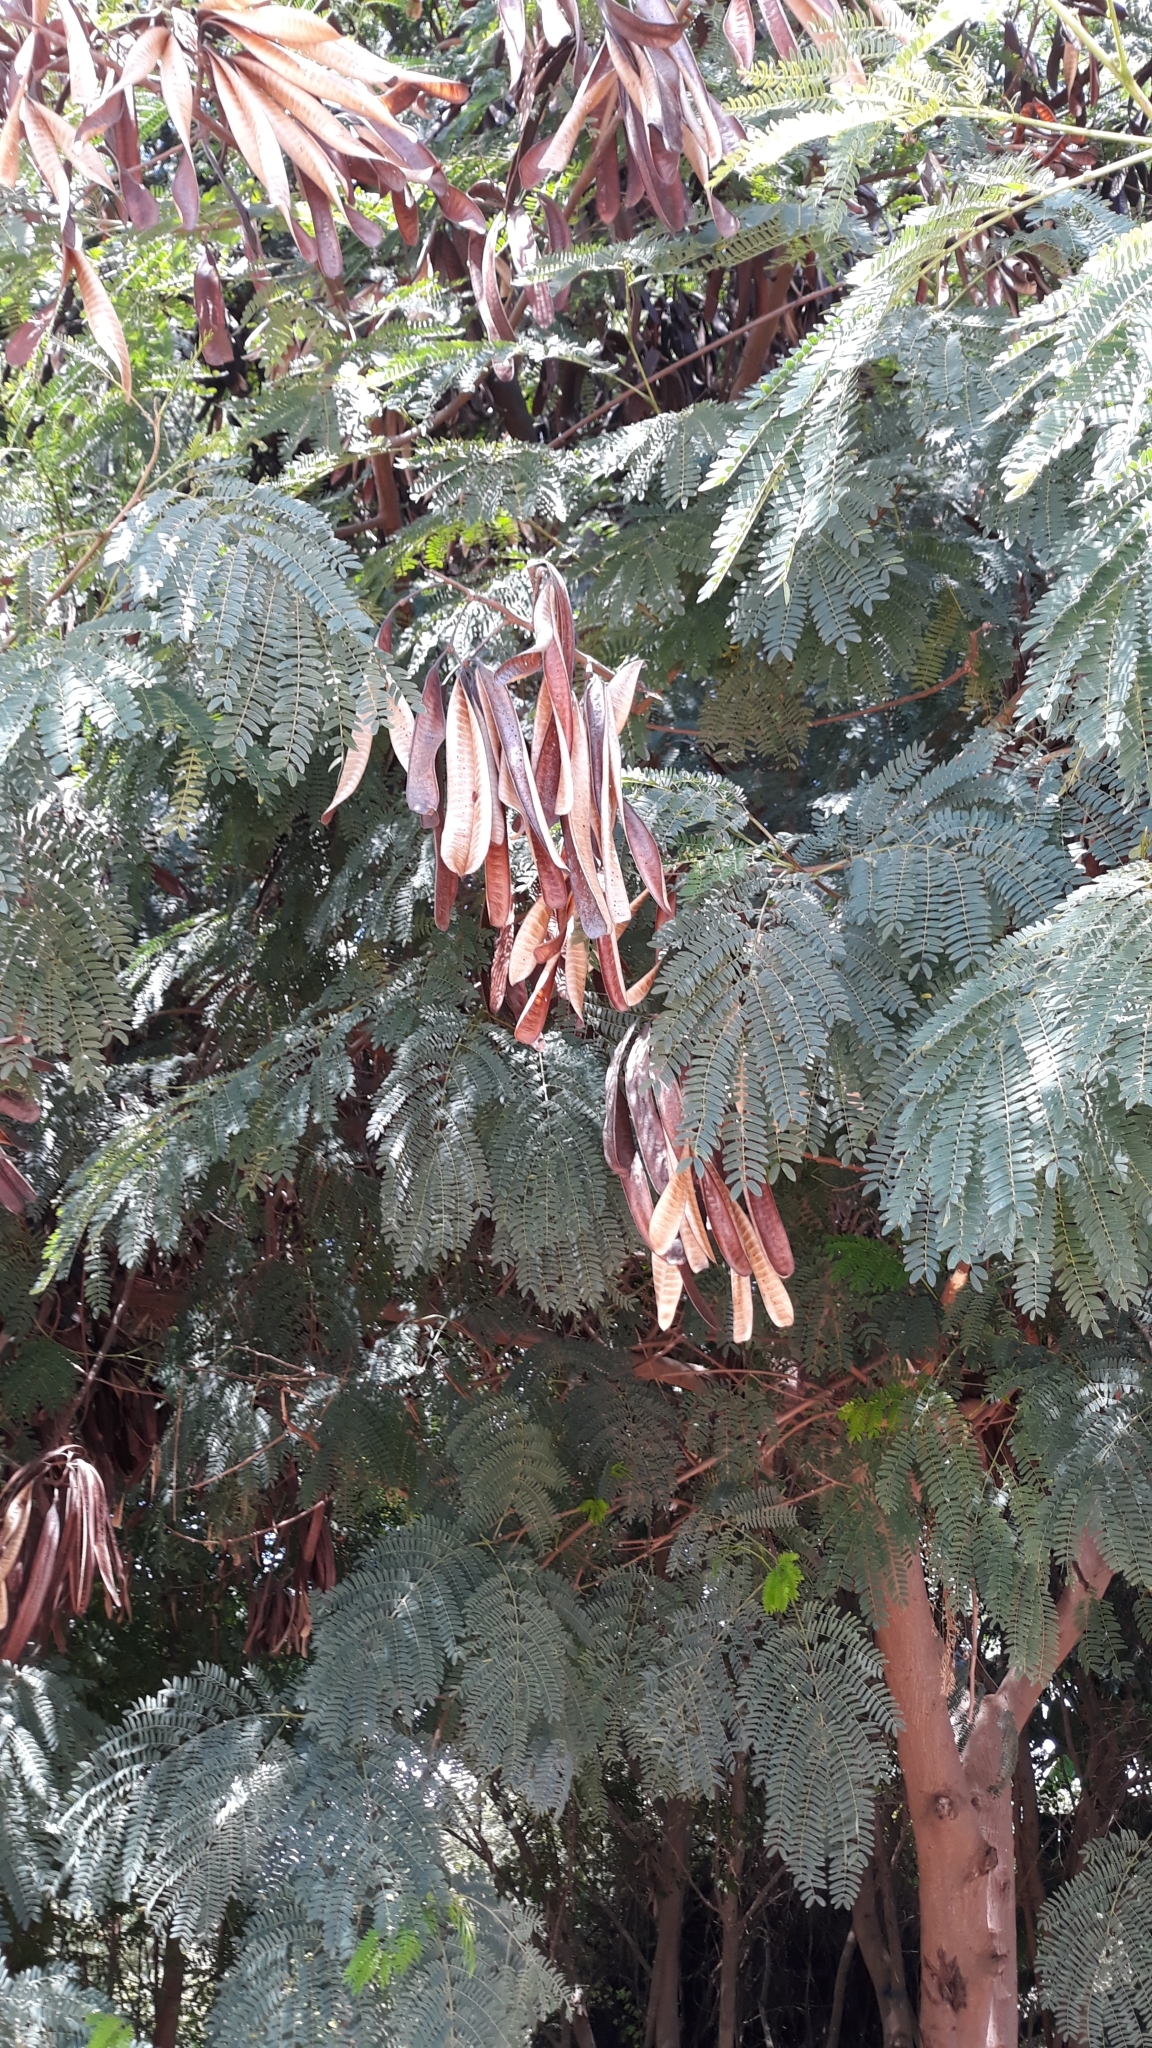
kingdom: Plantae
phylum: Tracheophyta
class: Magnoliopsida
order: Fabales
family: Fabaceae
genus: Leucaena
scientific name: Leucaena leucocephala
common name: White leadtree
